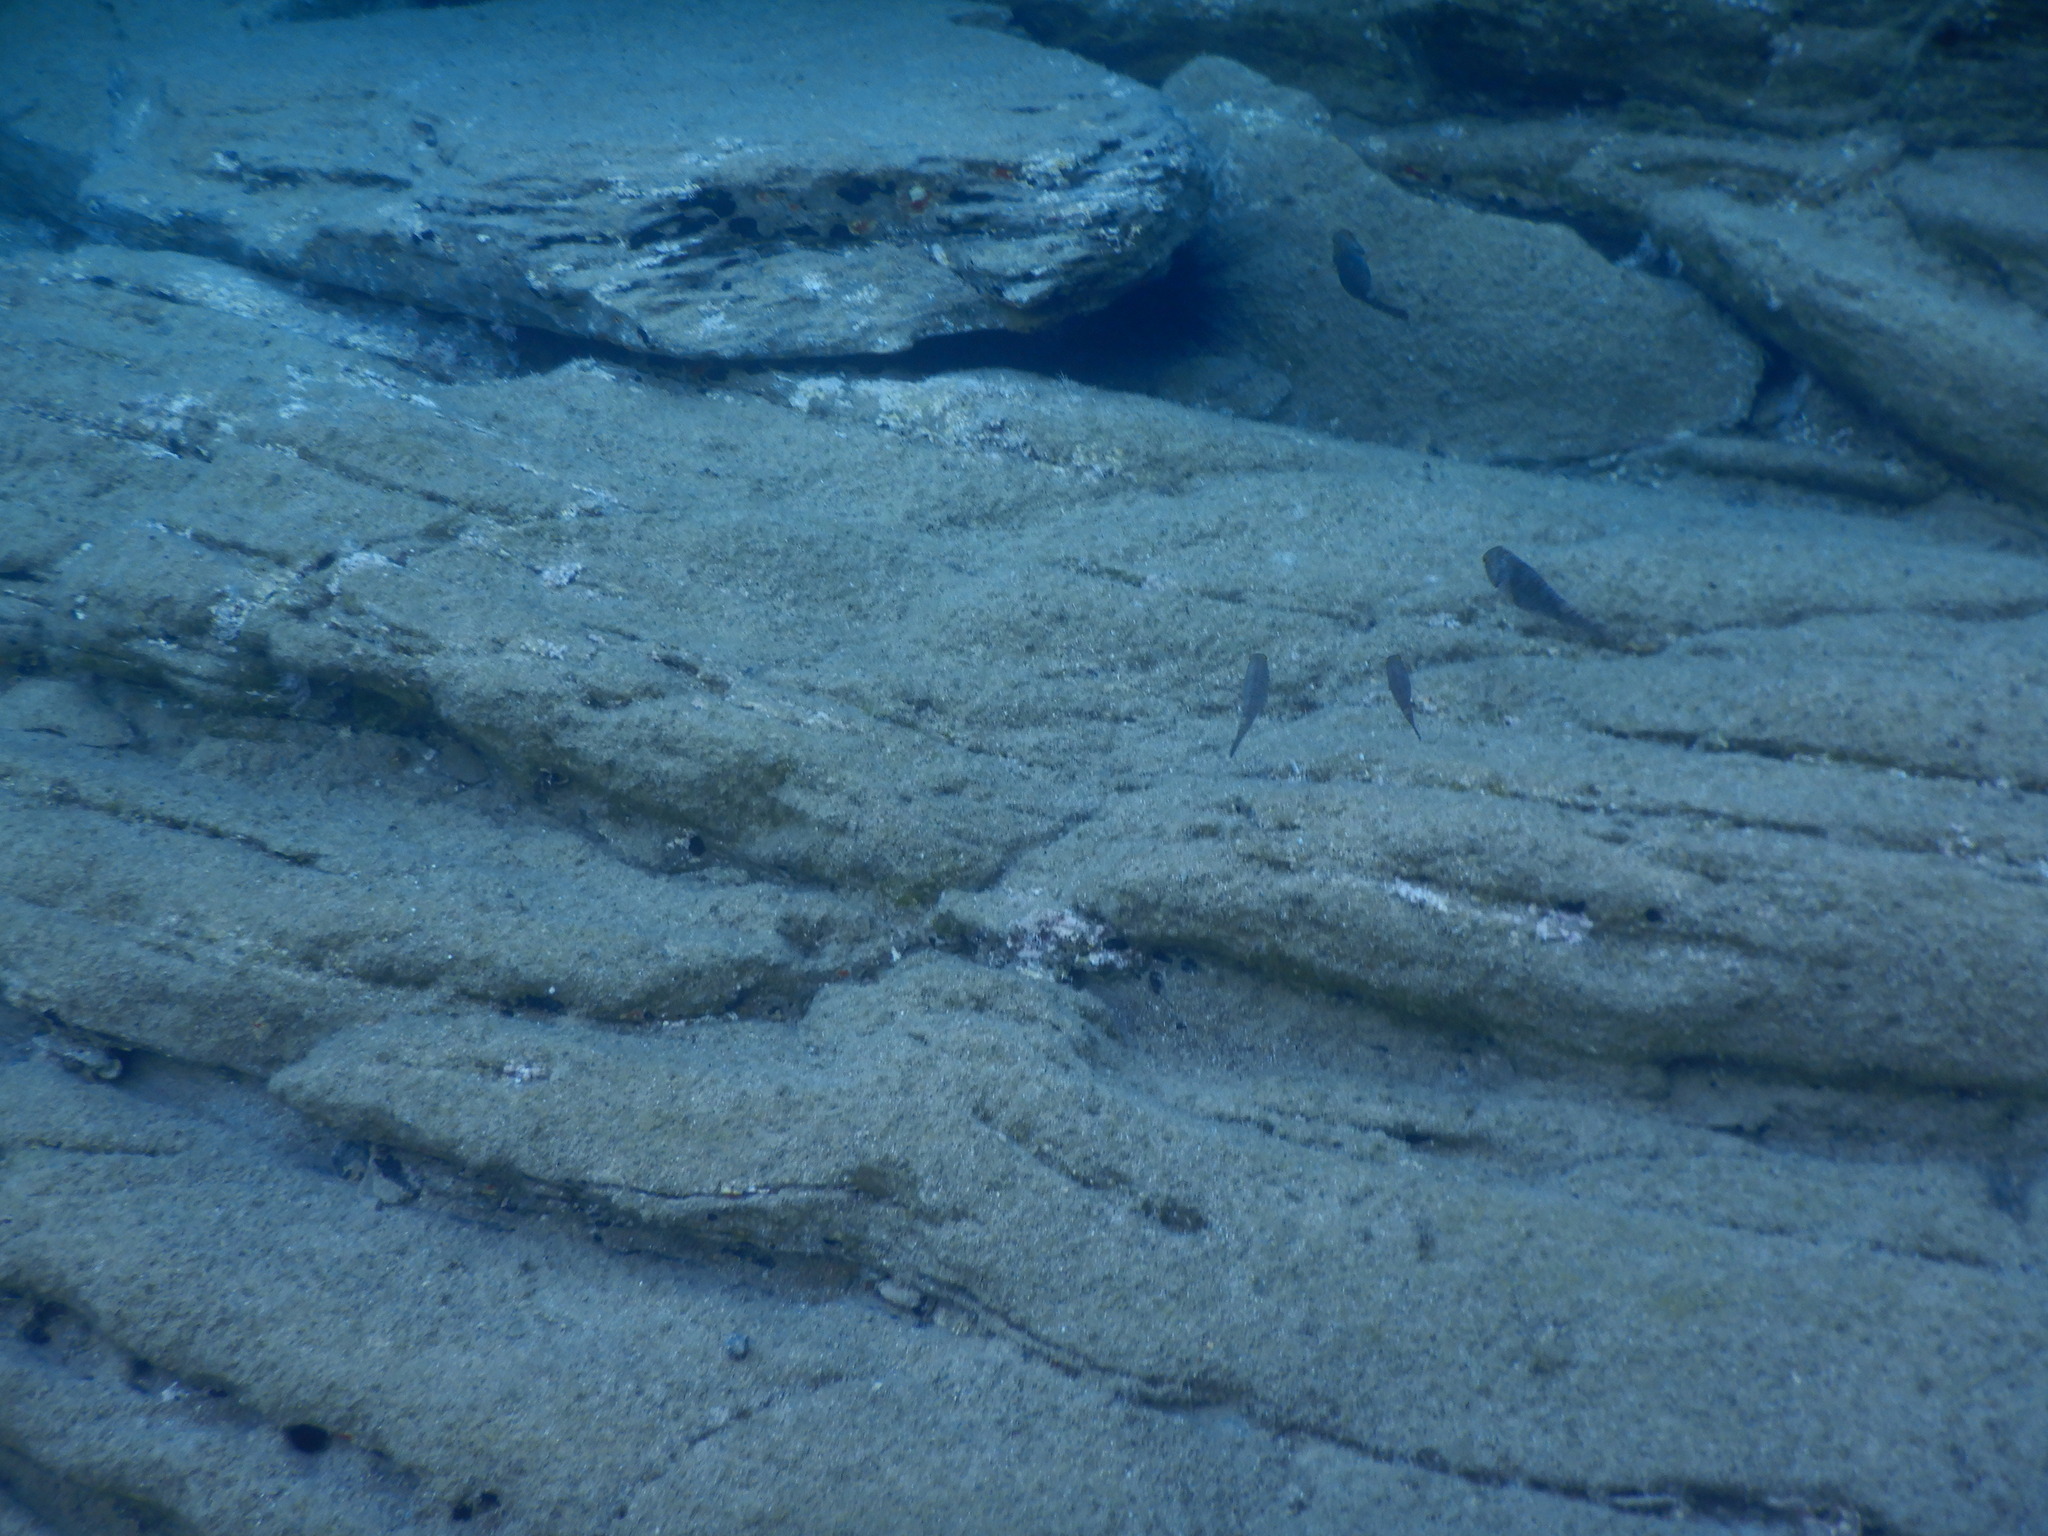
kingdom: Animalia
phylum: Chordata
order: Perciformes
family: Scaridae
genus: Sparisoma
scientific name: Sparisoma cretense
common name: Parrotfish
